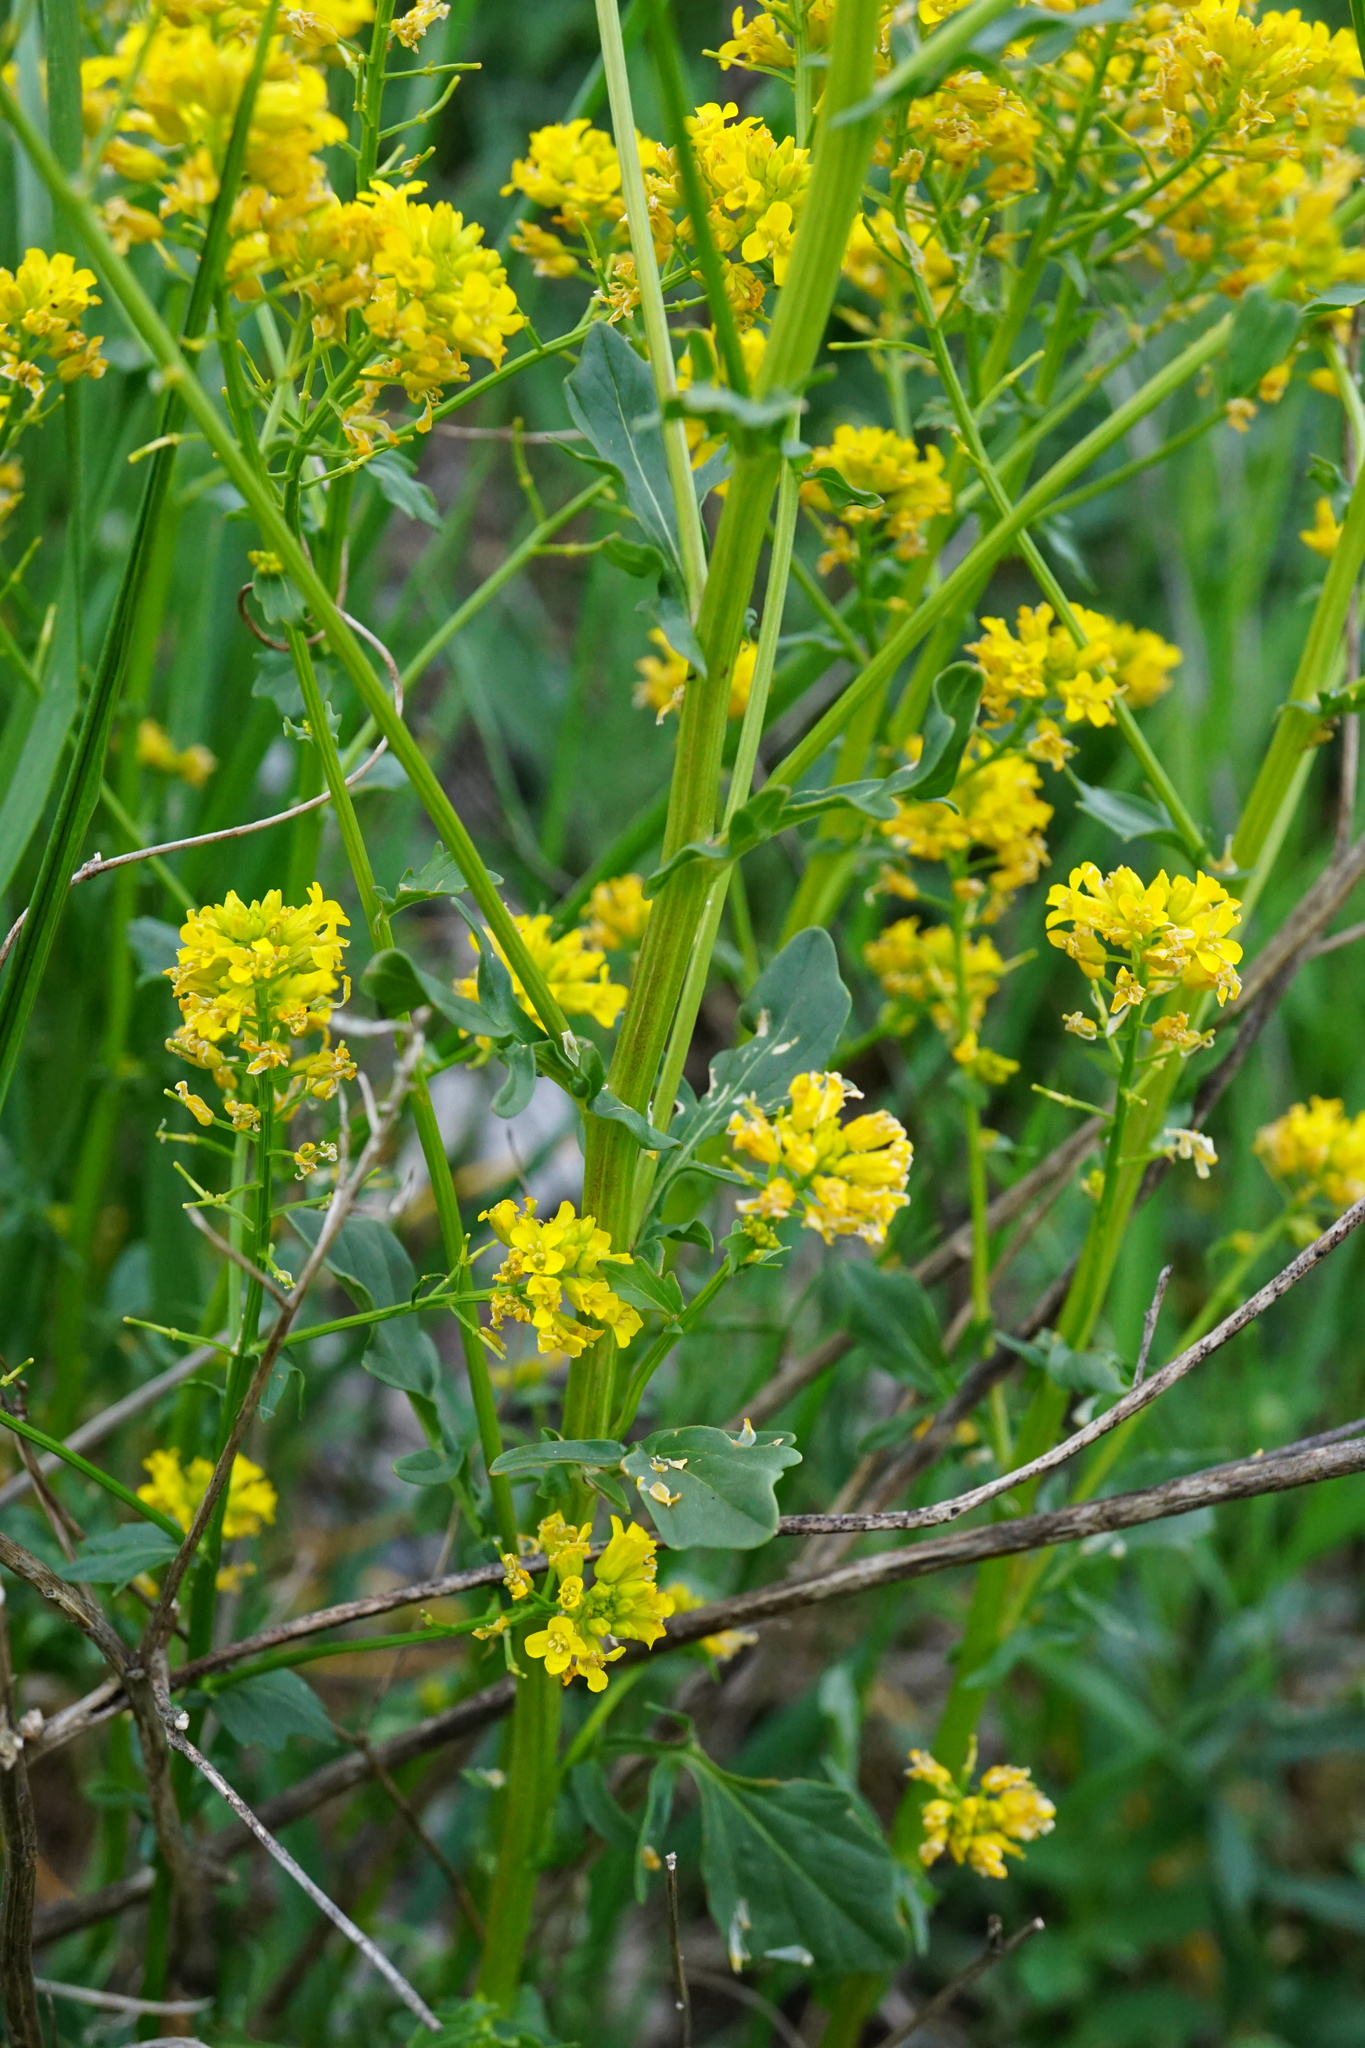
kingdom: Plantae
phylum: Tracheophyta
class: Magnoliopsida
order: Brassicales
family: Brassicaceae
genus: Barbarea
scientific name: Barbarea vulgaris
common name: Cressy-greens
